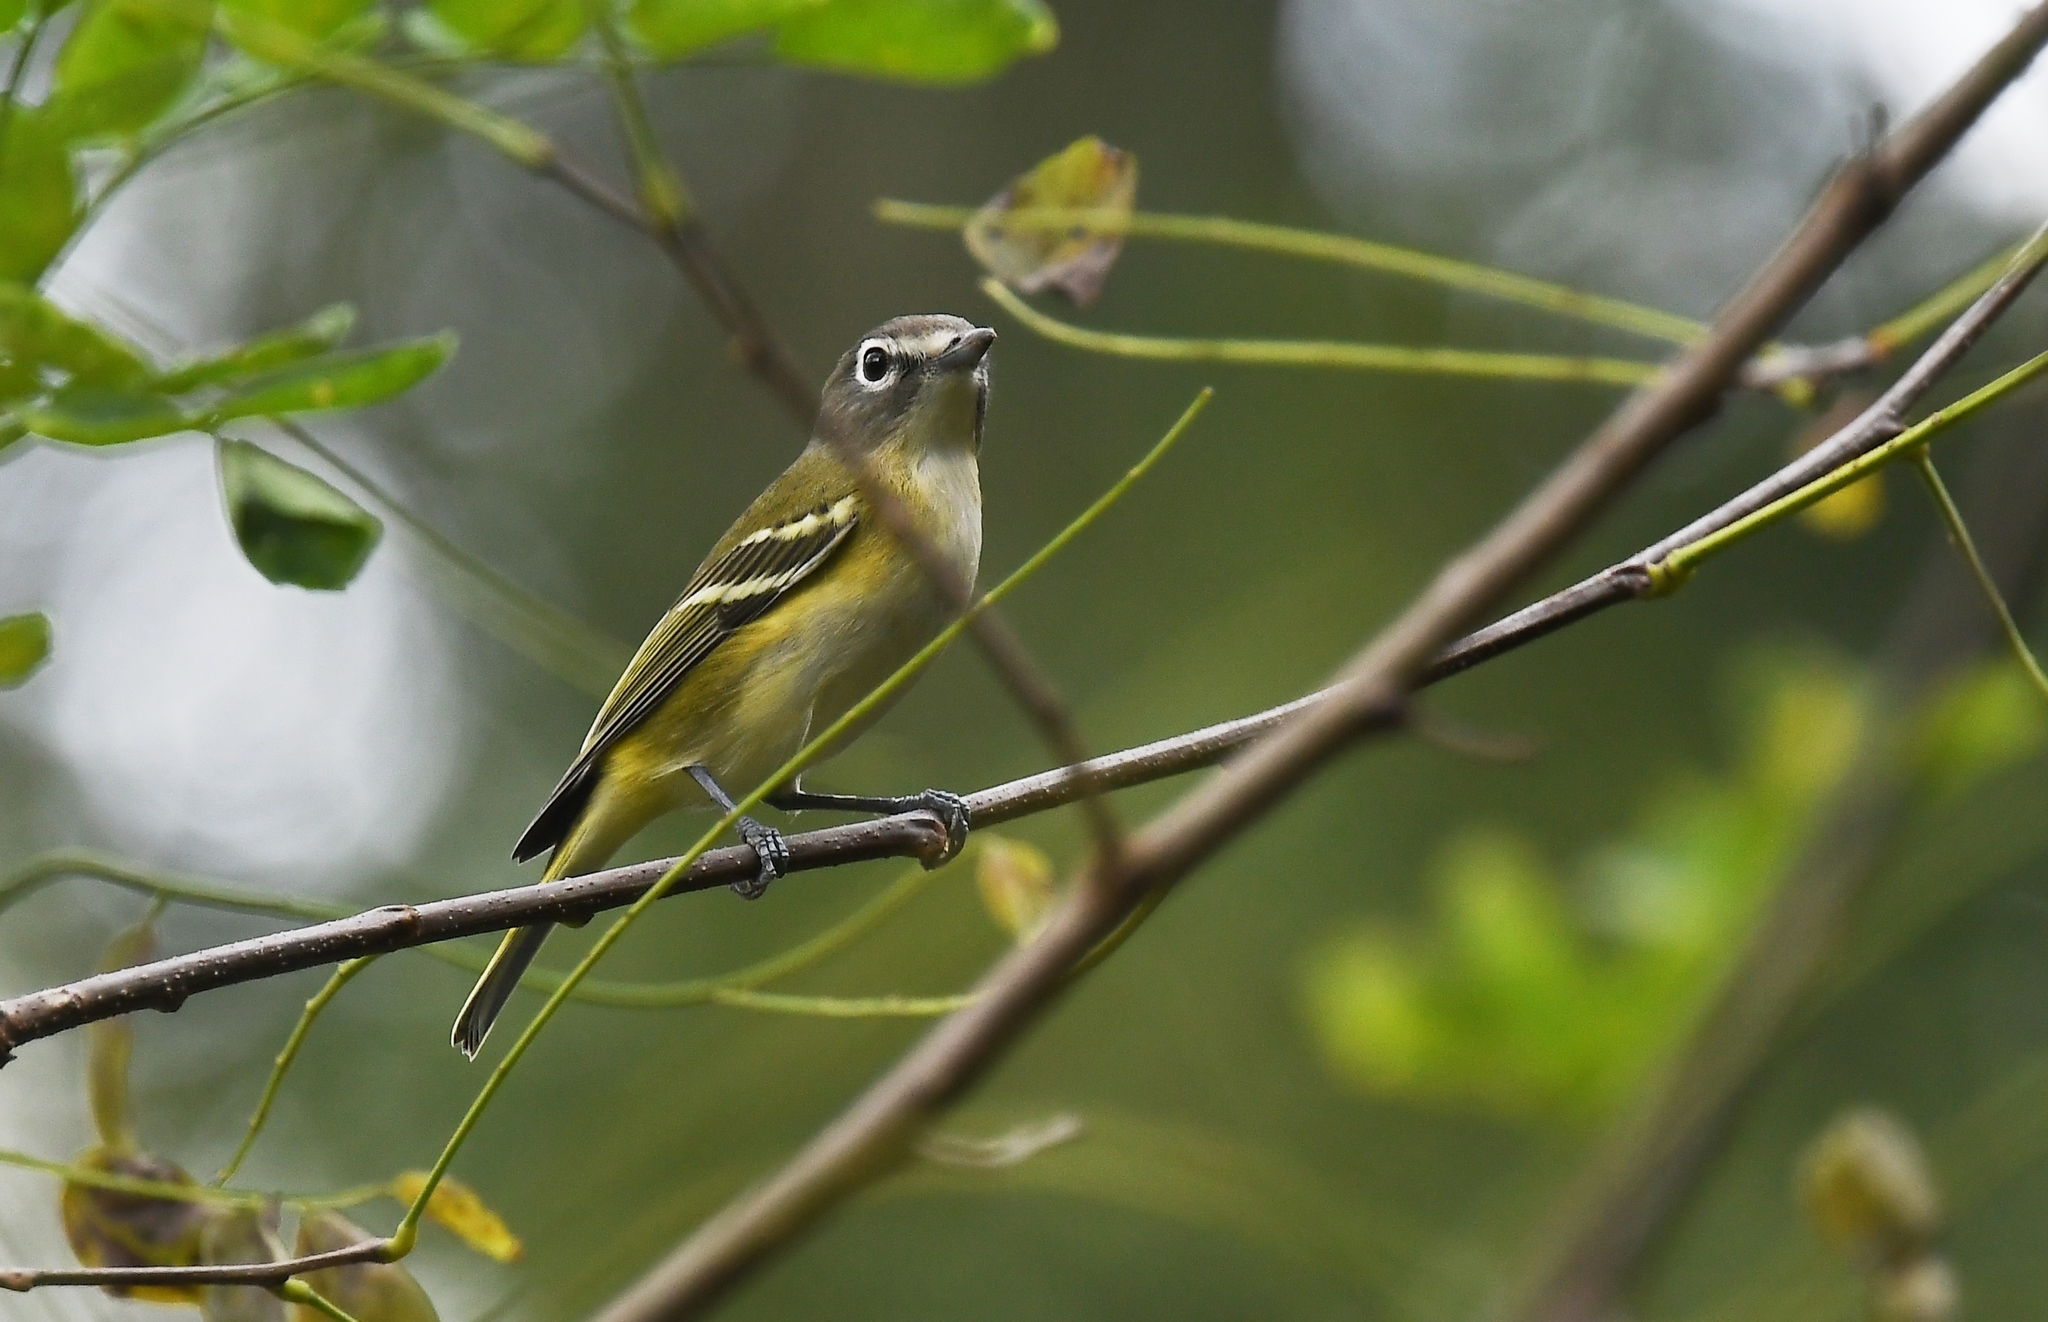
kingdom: Animalia
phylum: Chordata
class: Aves
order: Passeriformes
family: Vireonidae
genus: Vireo
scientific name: Vireo solitarius
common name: Blue-headed vireo
